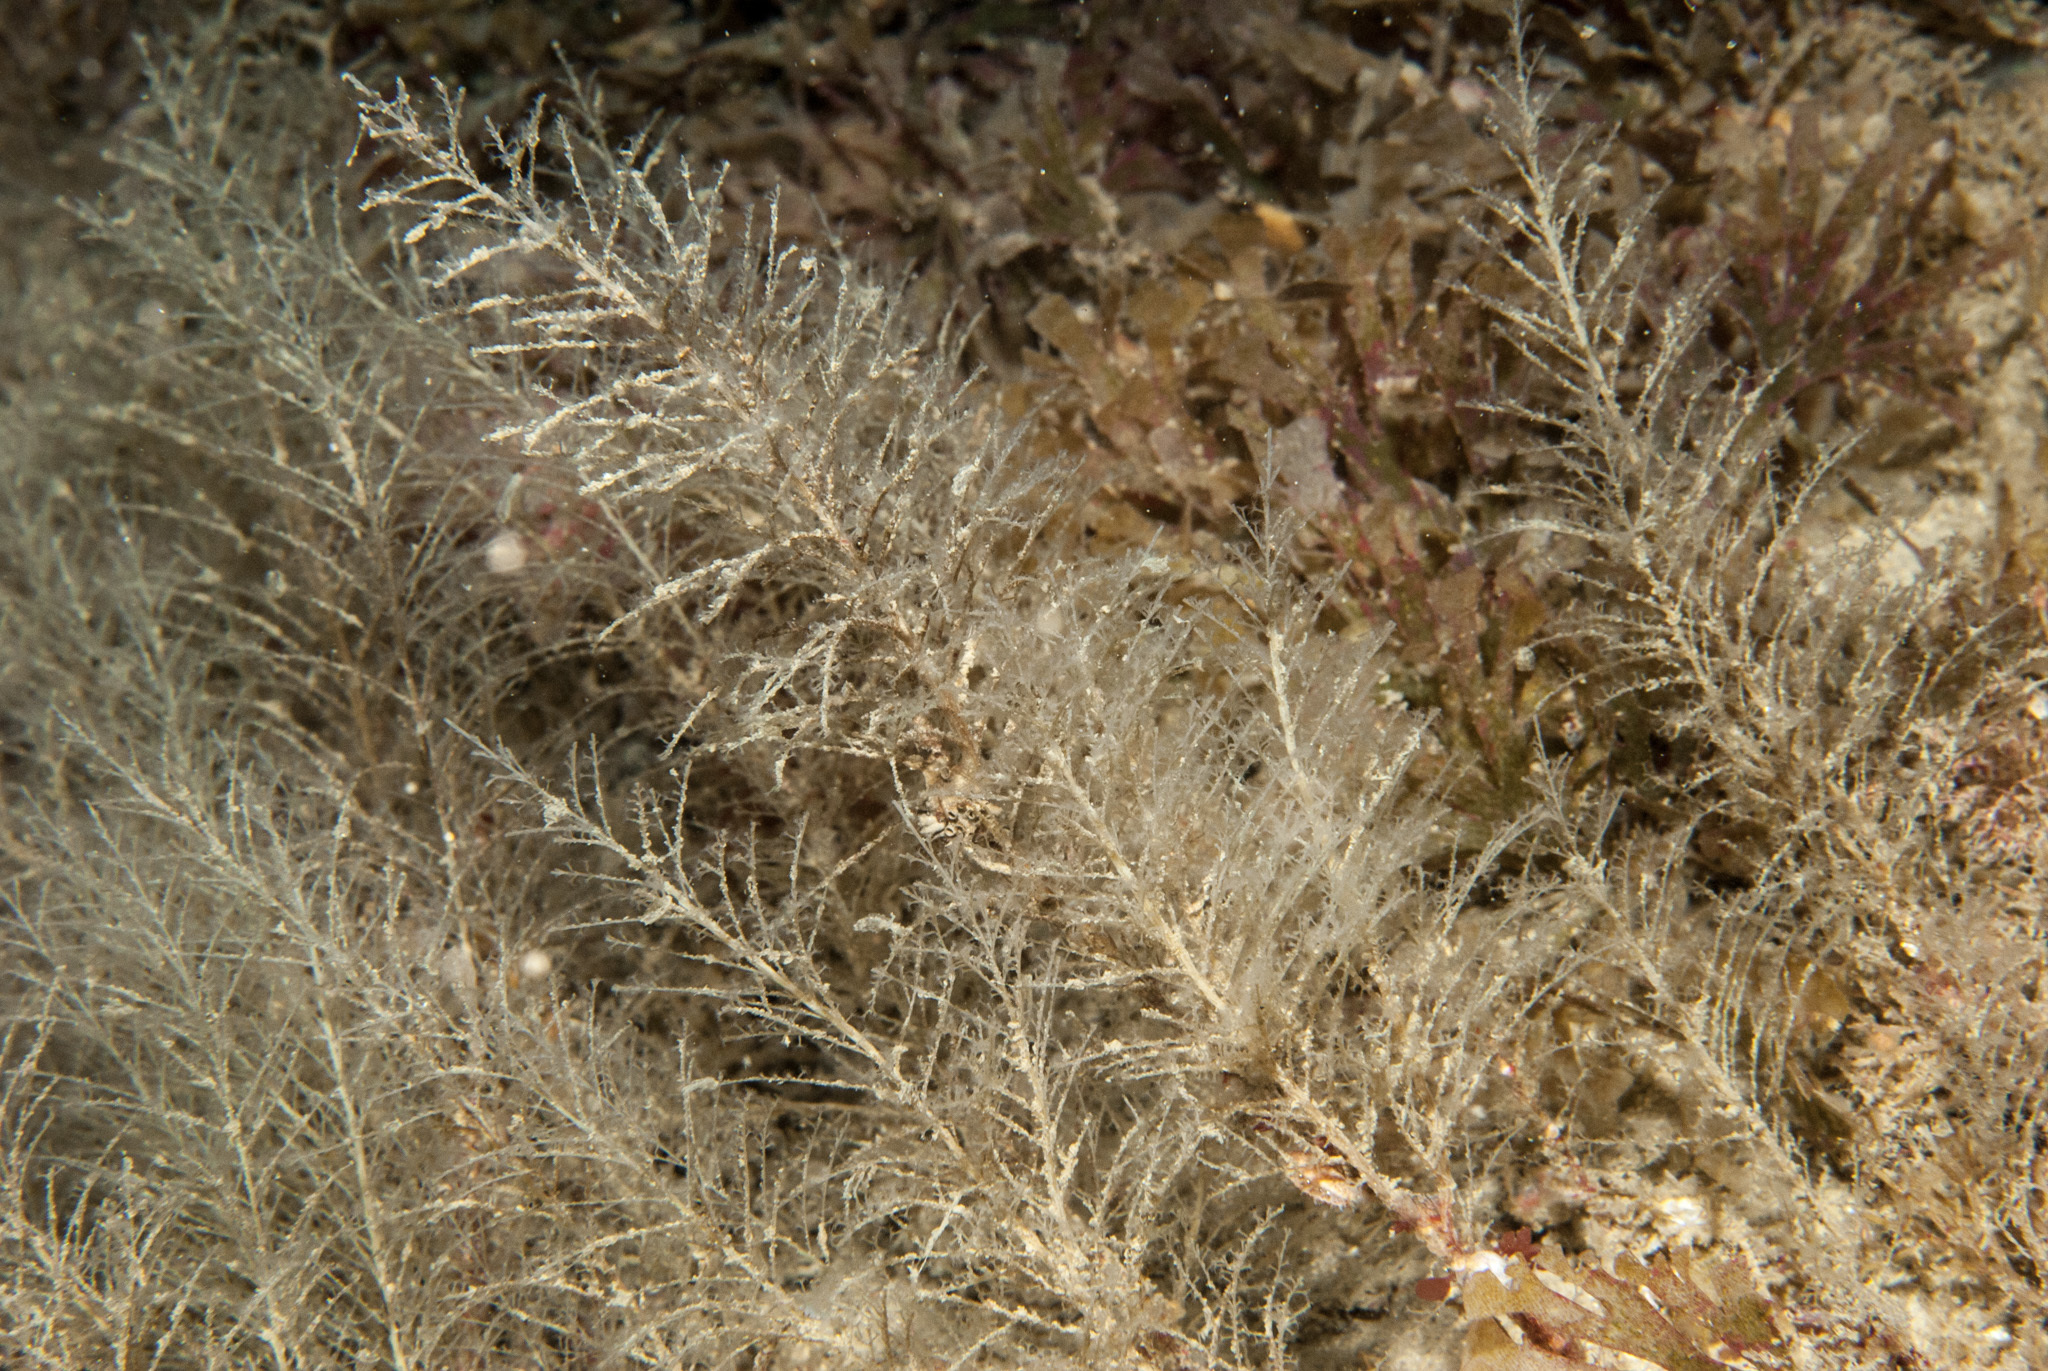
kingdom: Animalia
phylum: Cnidaria
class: Hydrozoa
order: Leptothecata
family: Haleciidae
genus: Halecium
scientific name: Halecium plumosum
